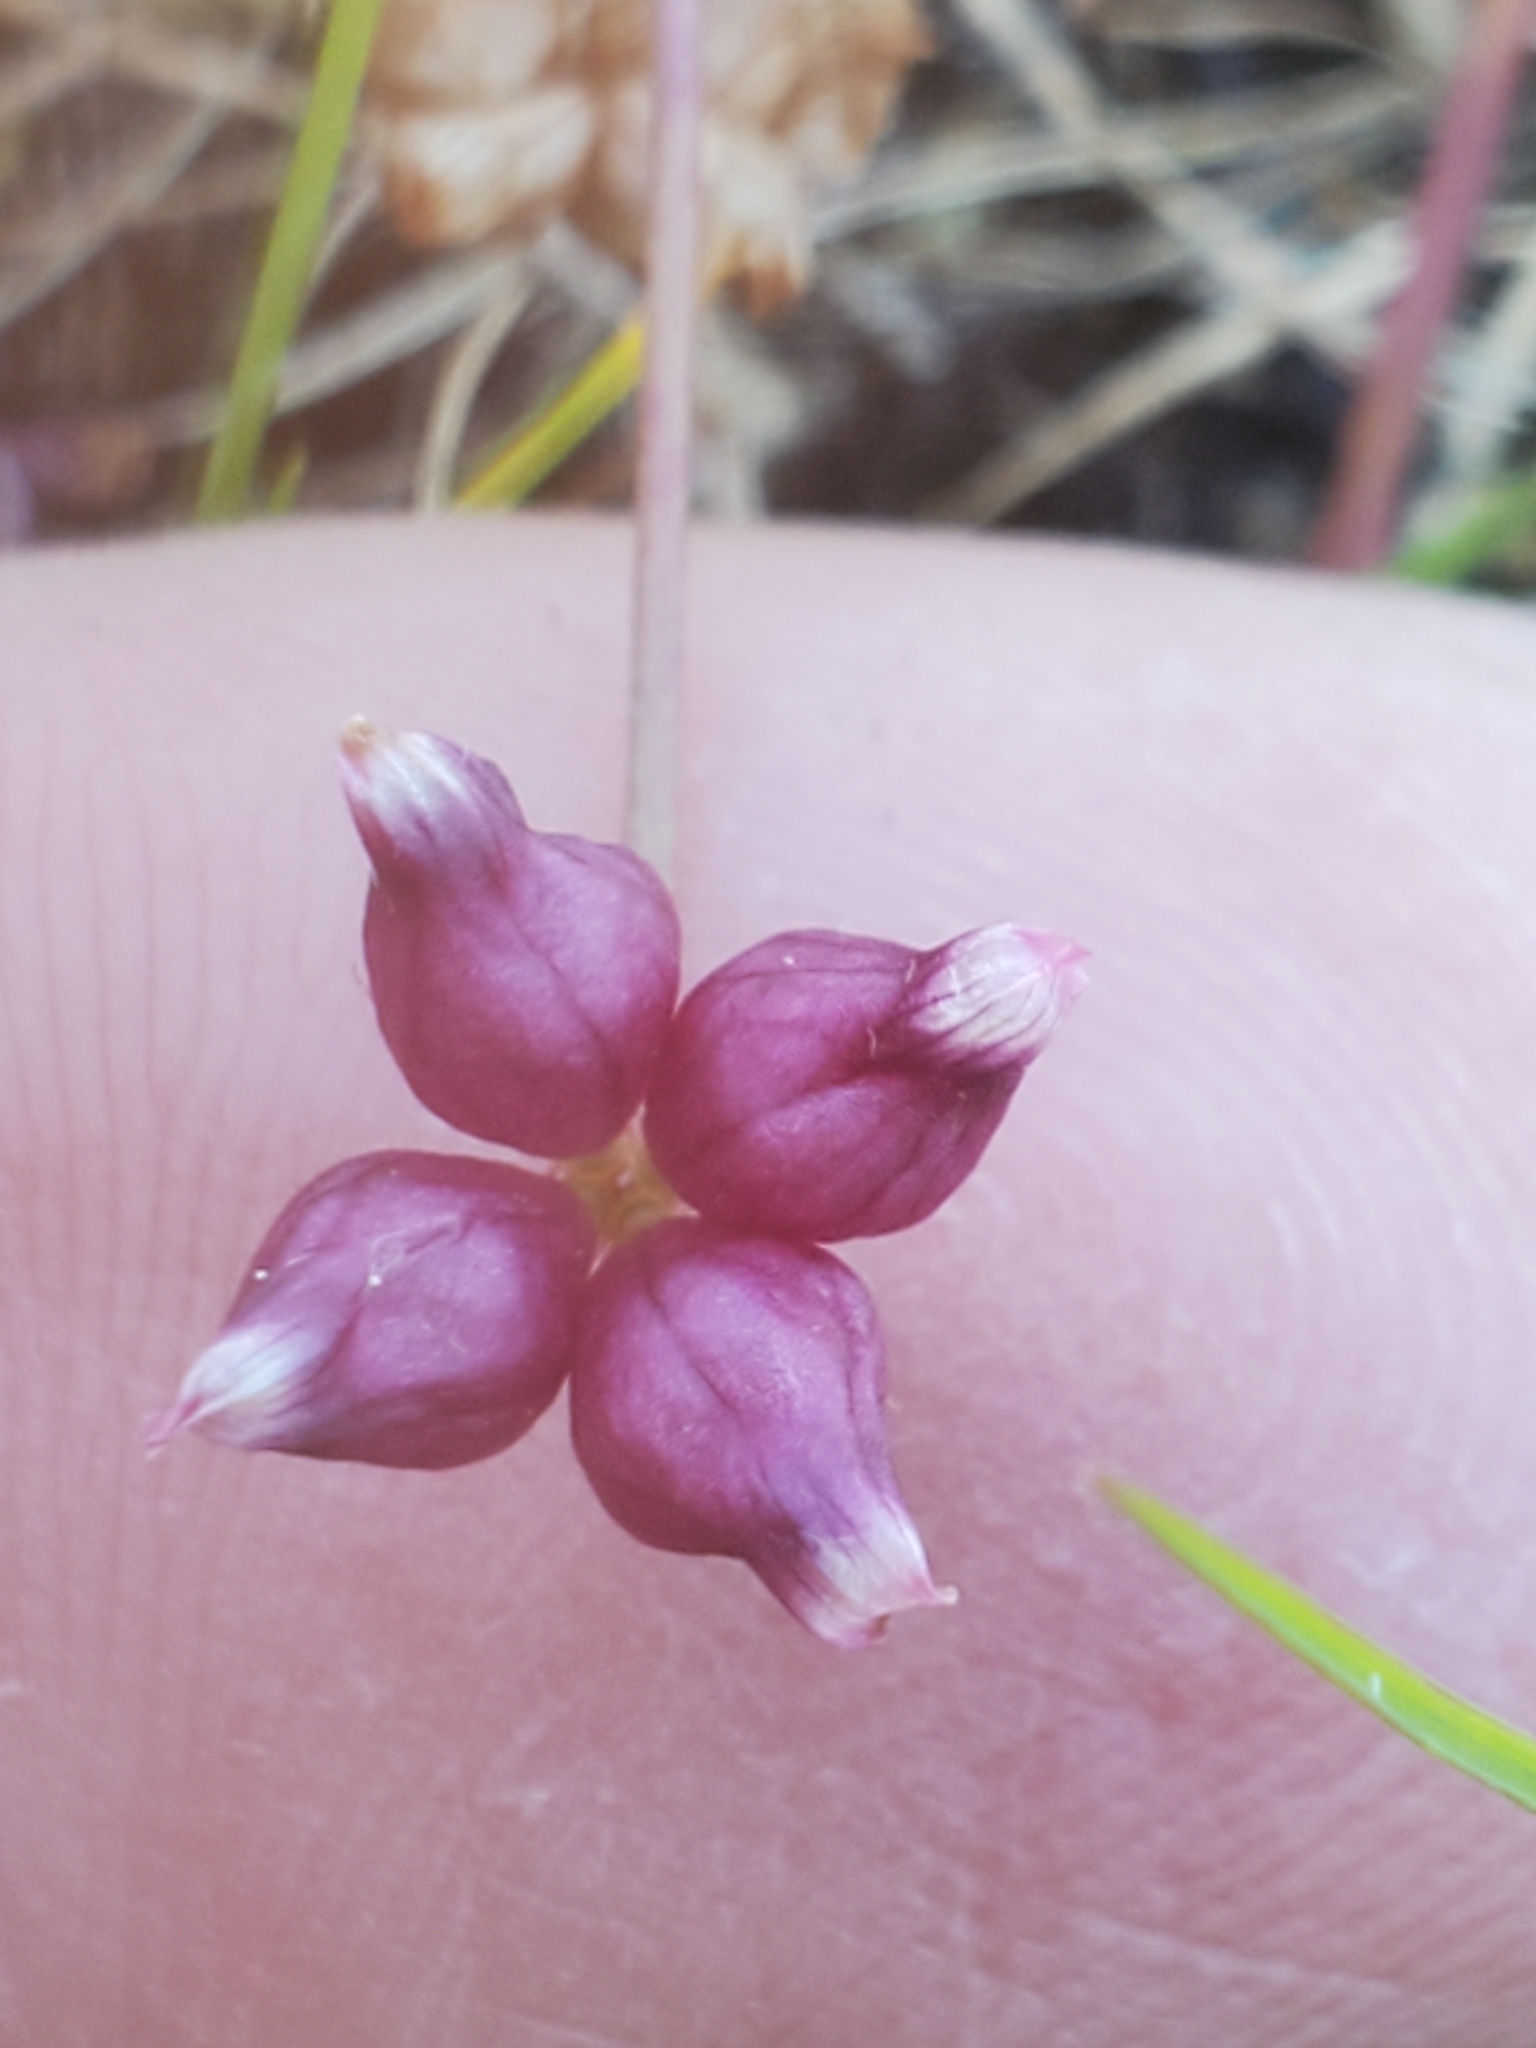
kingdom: Plantae
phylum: Tracheophyta
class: Magnoliopsida
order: Fabales
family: Fabaceae
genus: Trifolium
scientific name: Trifolium depauperatum
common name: Poverty clover
